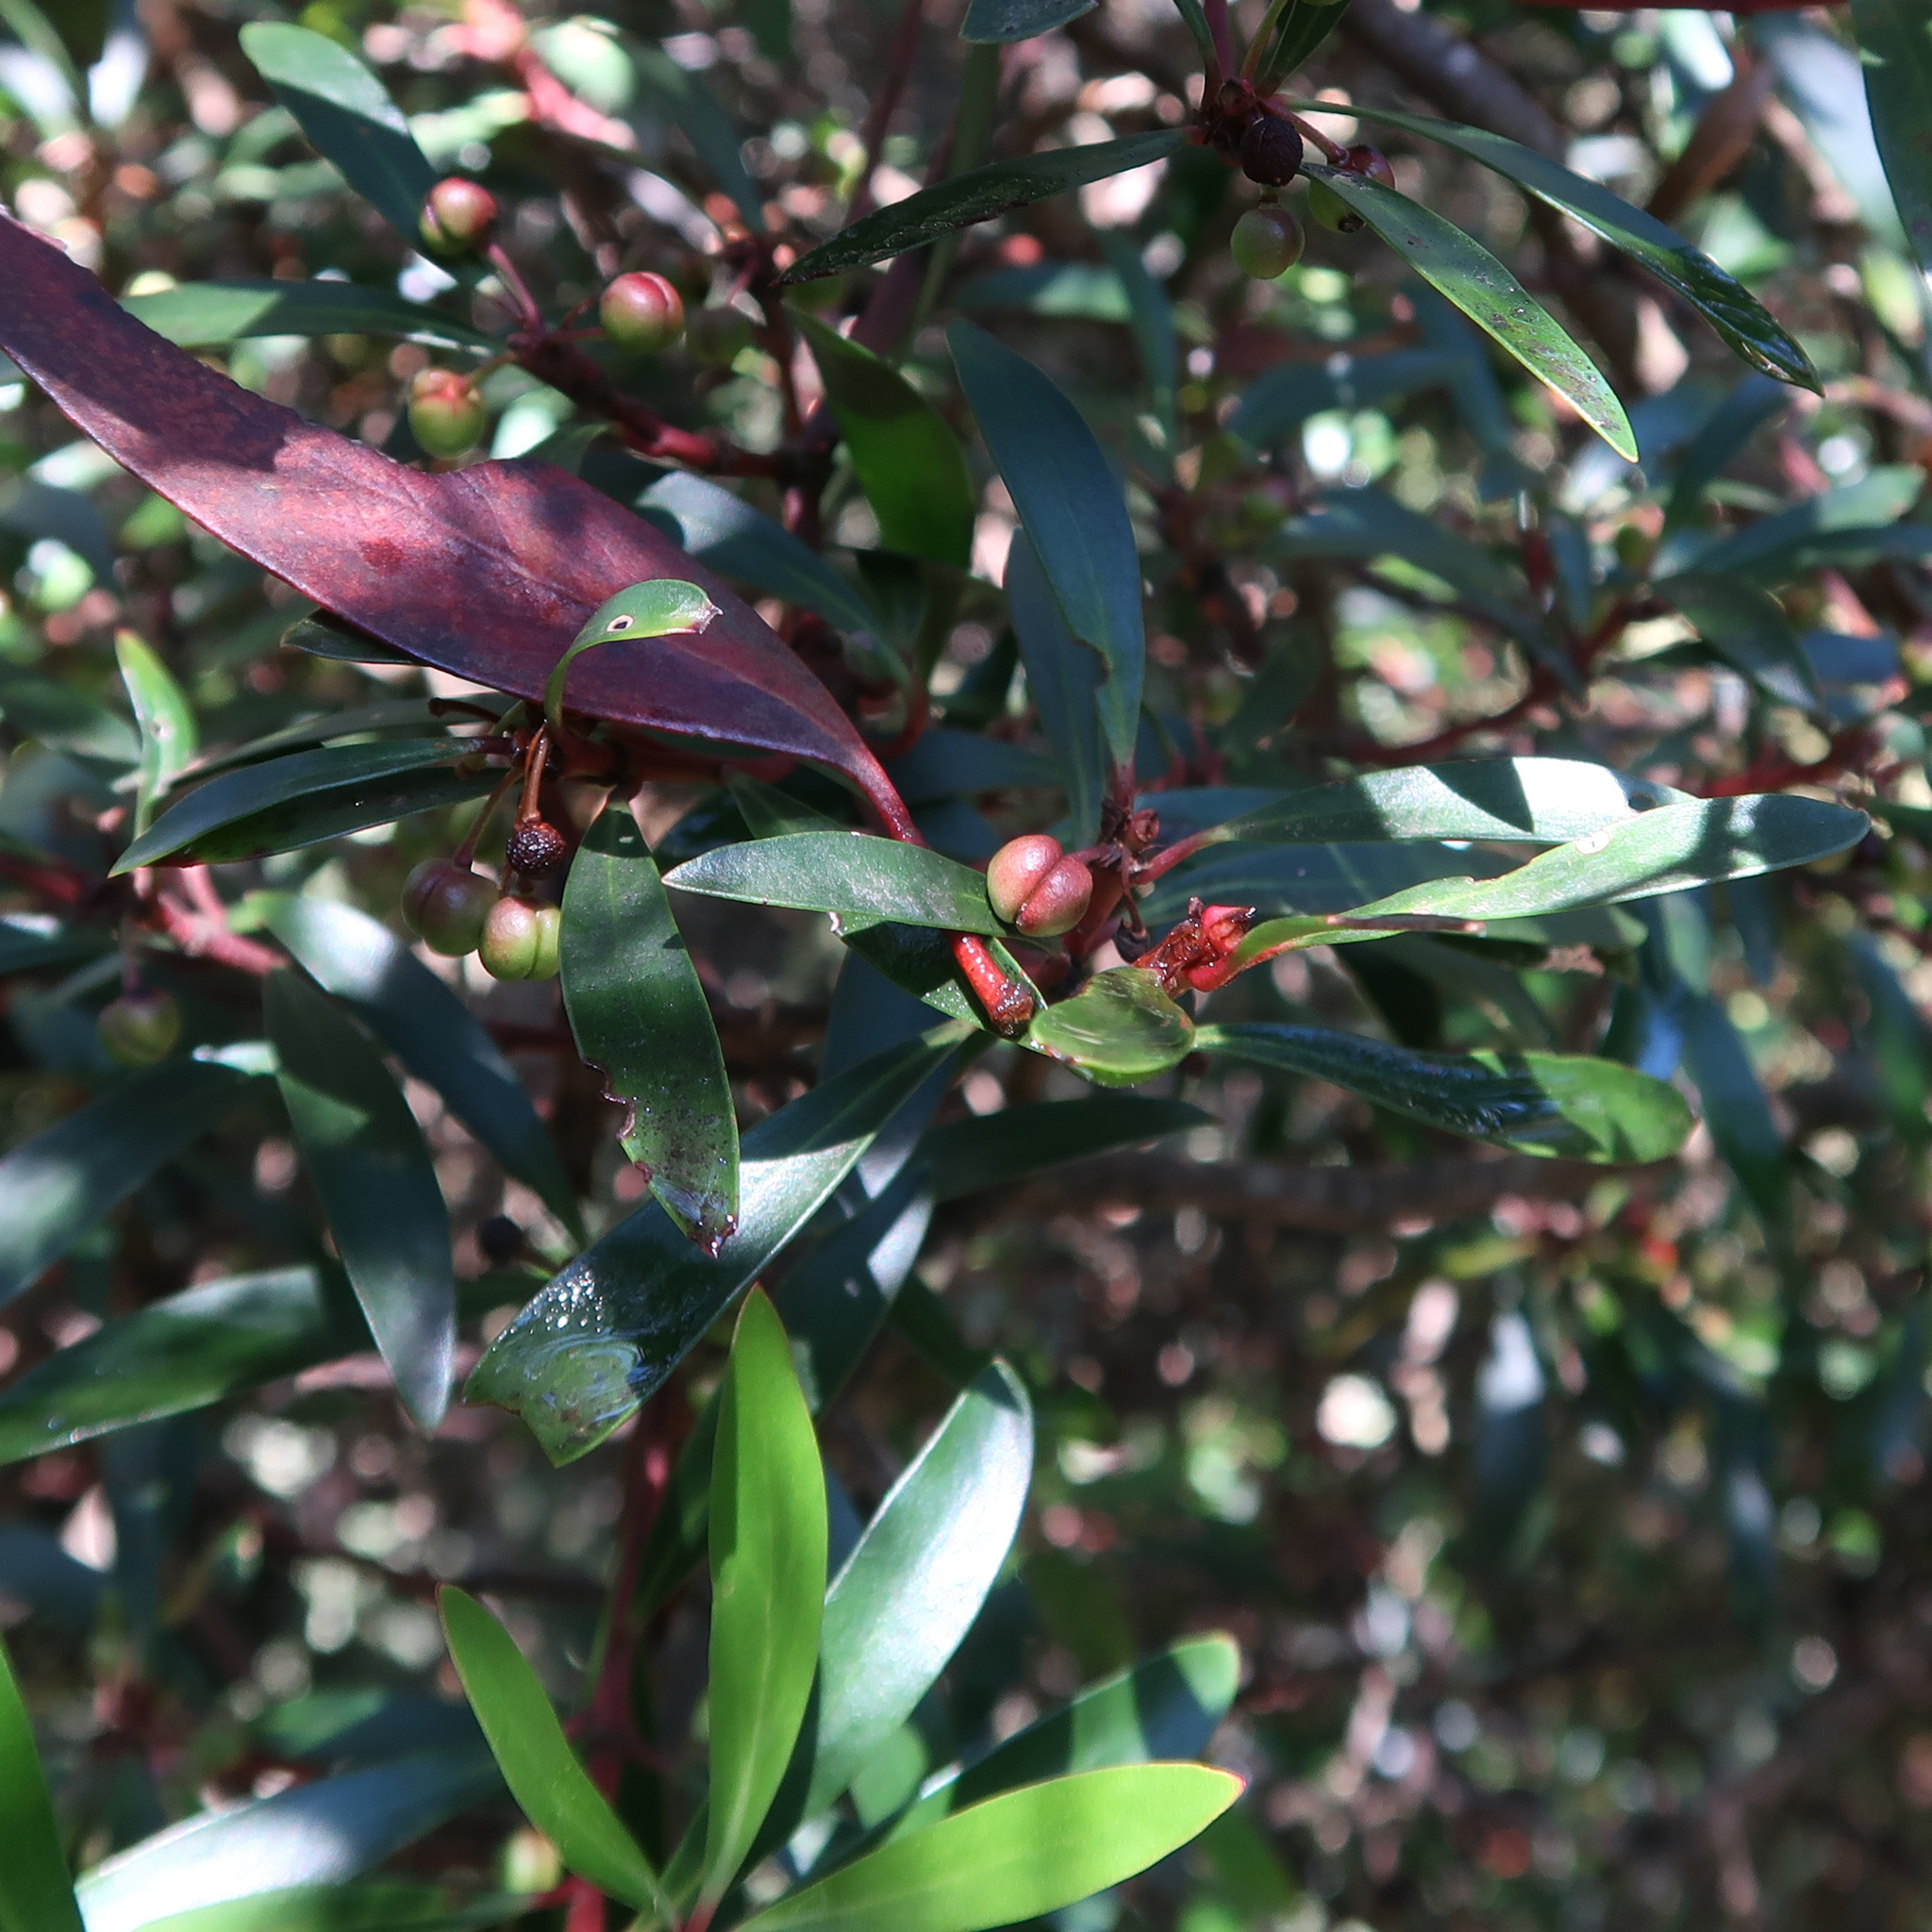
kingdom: Plantae
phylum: Tracheophyta
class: Magnoliopsida
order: Canellales
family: Winteraceae
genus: Drimys
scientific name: Drimys aromatica
